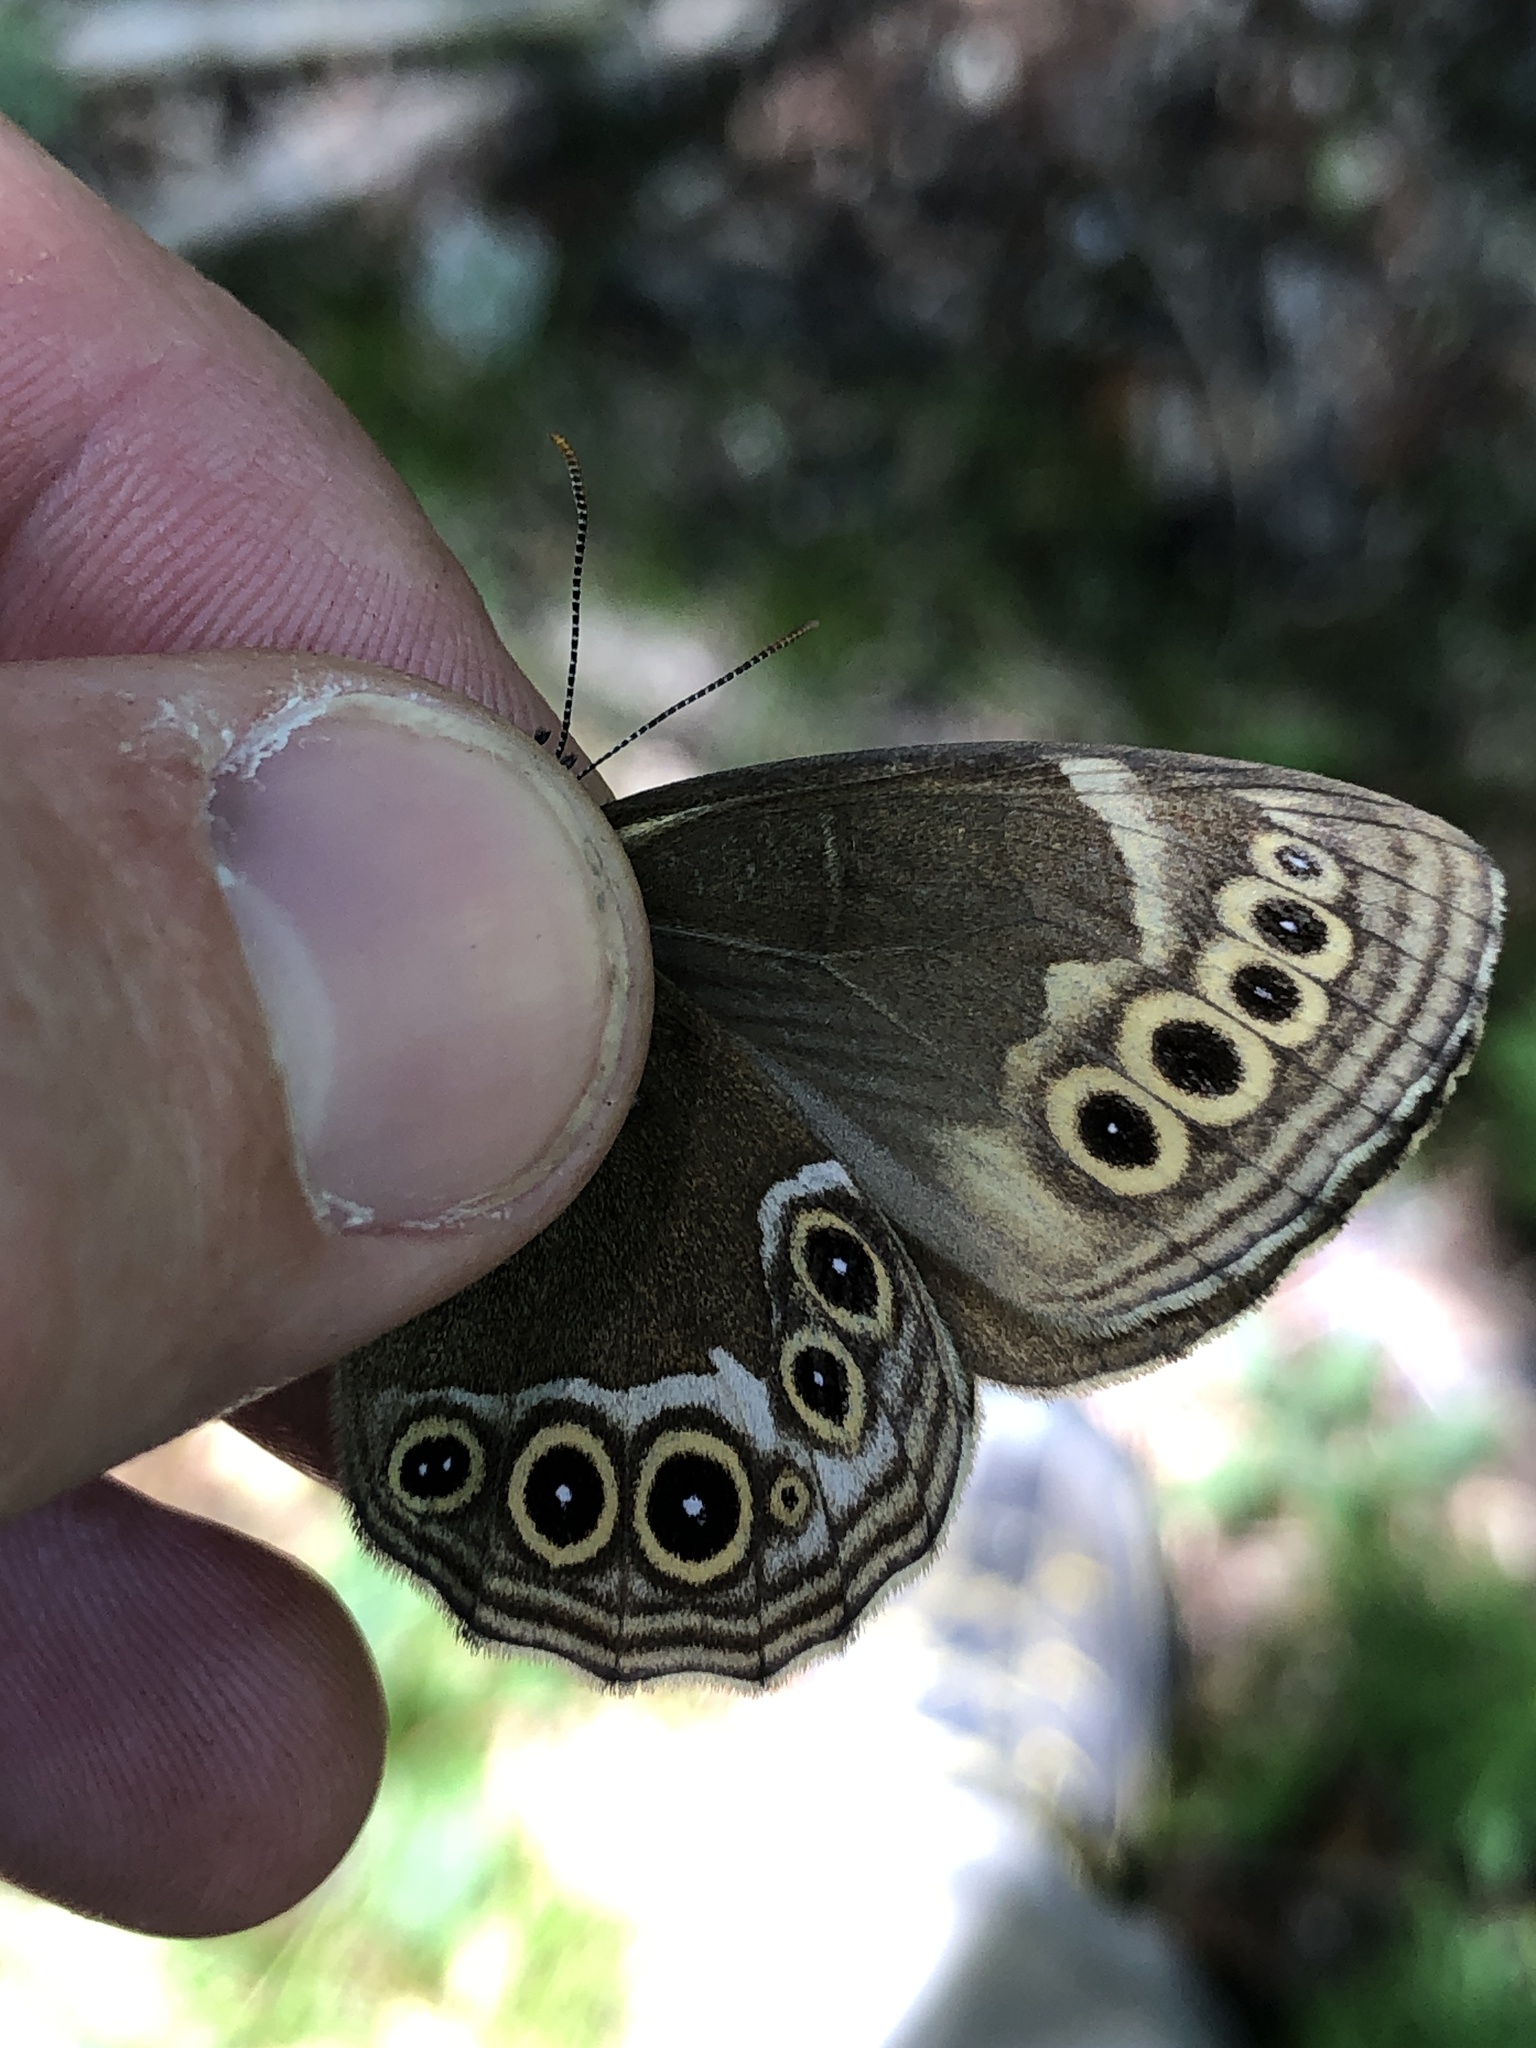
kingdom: Animalia
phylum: Arthropoda
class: Insecta
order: Lepidoptera
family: Nymphalidae
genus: Pararge
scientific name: Pararge Lopinga achine
